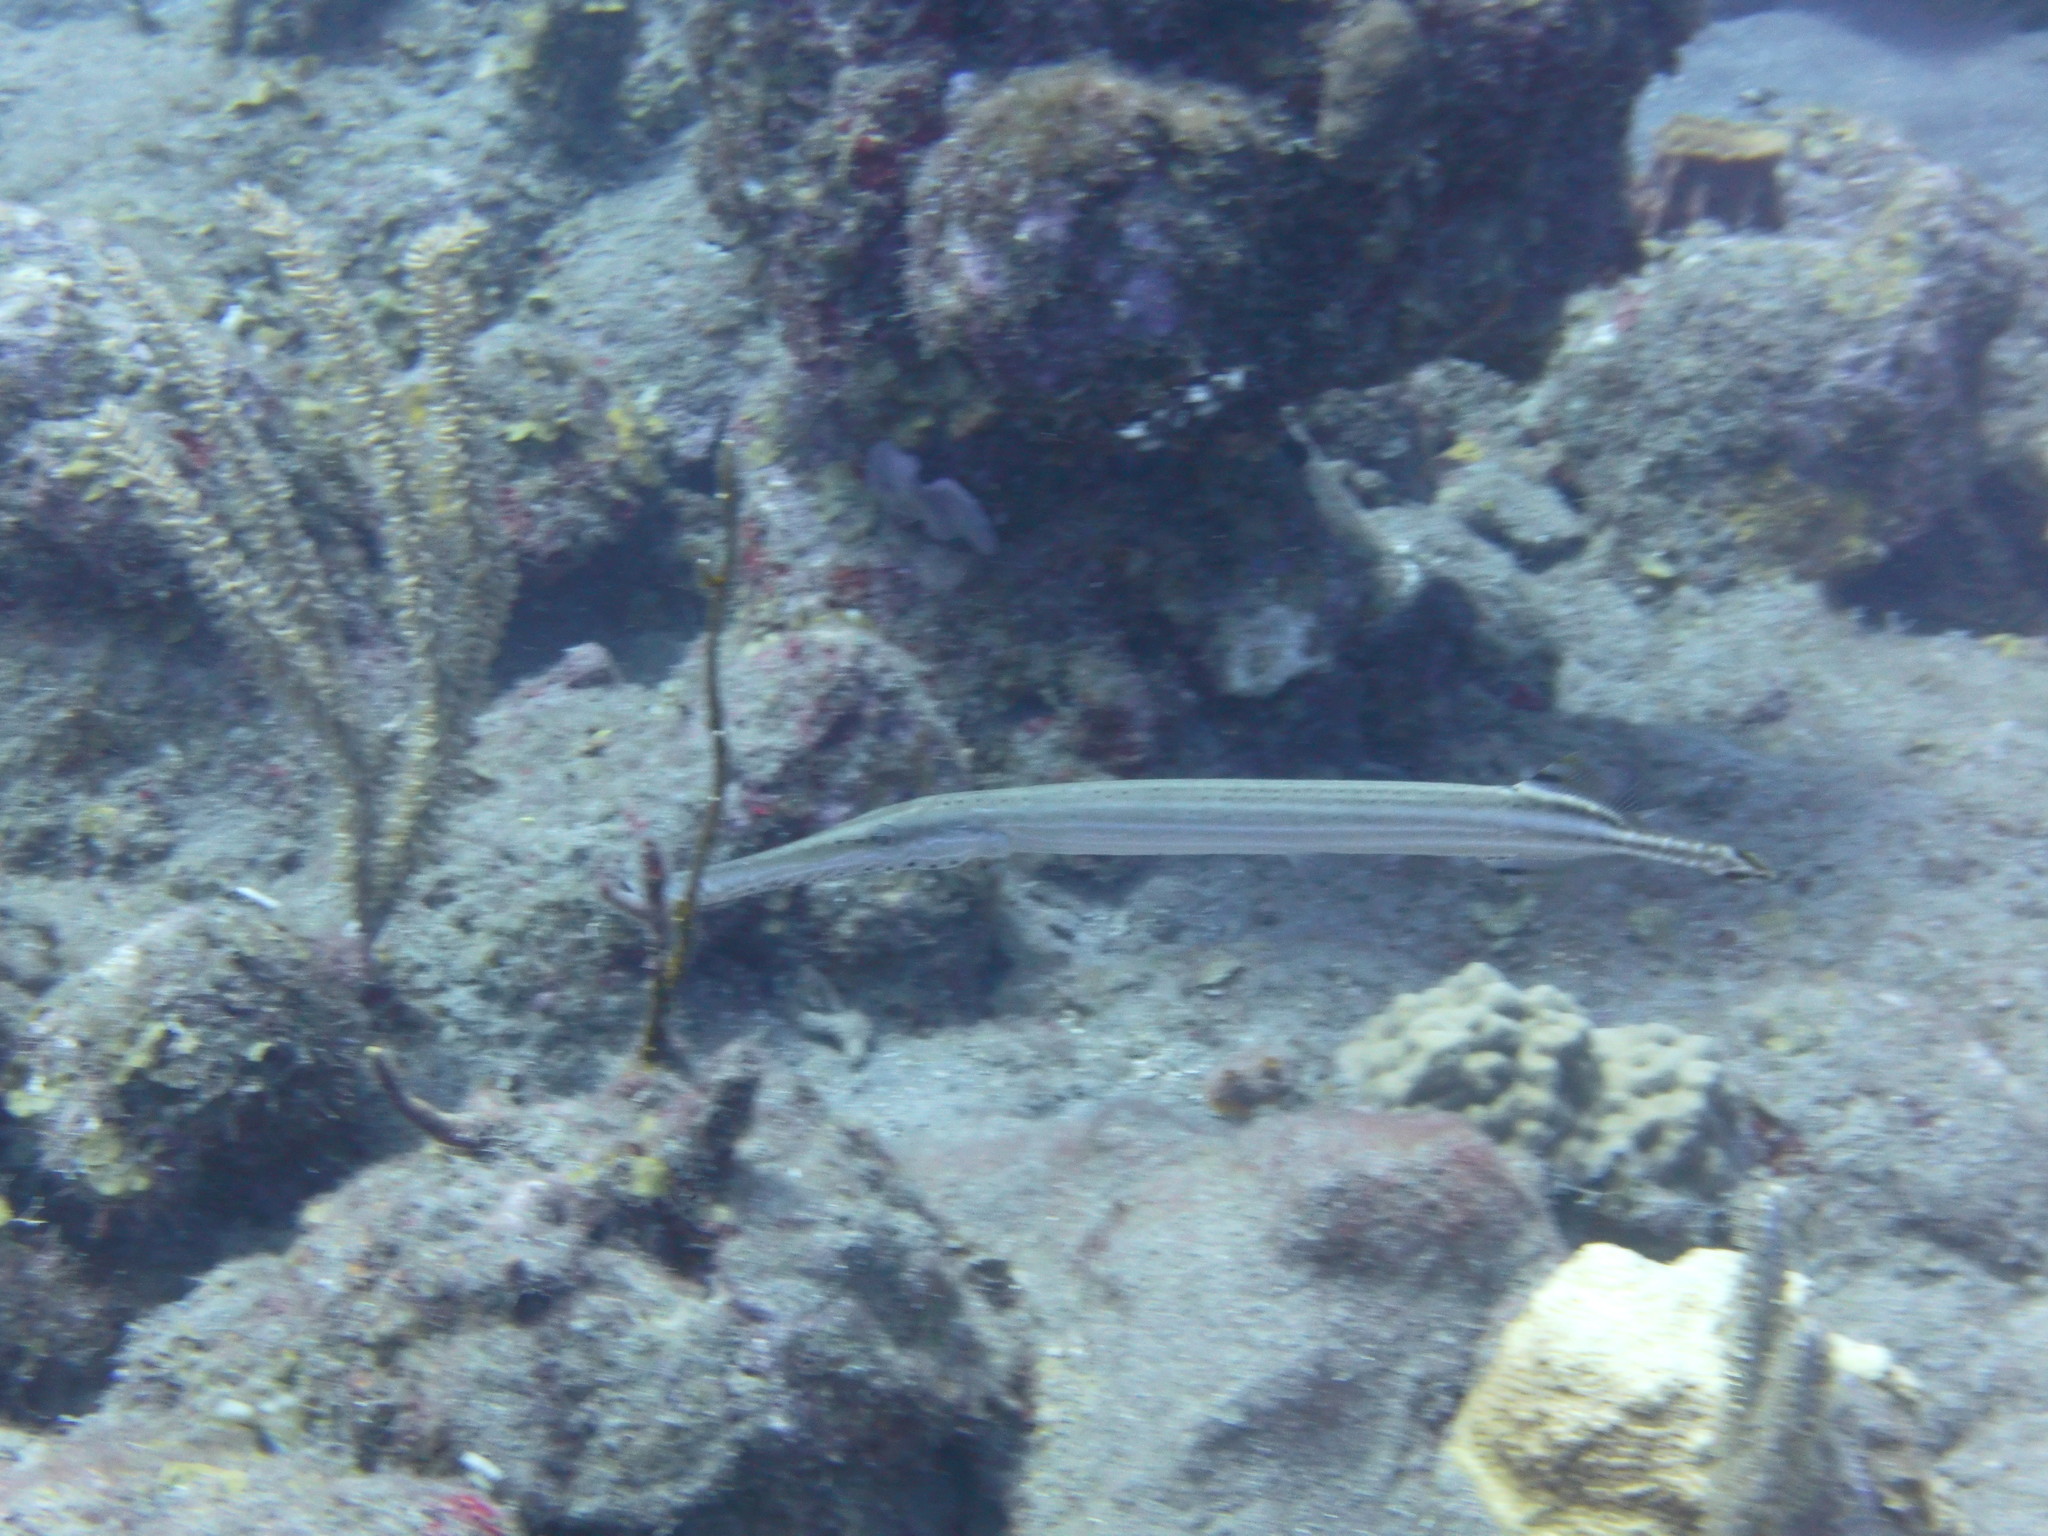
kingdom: Animalia
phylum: Chordata
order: Syngnathiformes
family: Aulostomidae
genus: Aulostomus
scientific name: Aulostomus maculatus
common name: West atlantic trumpetfish
